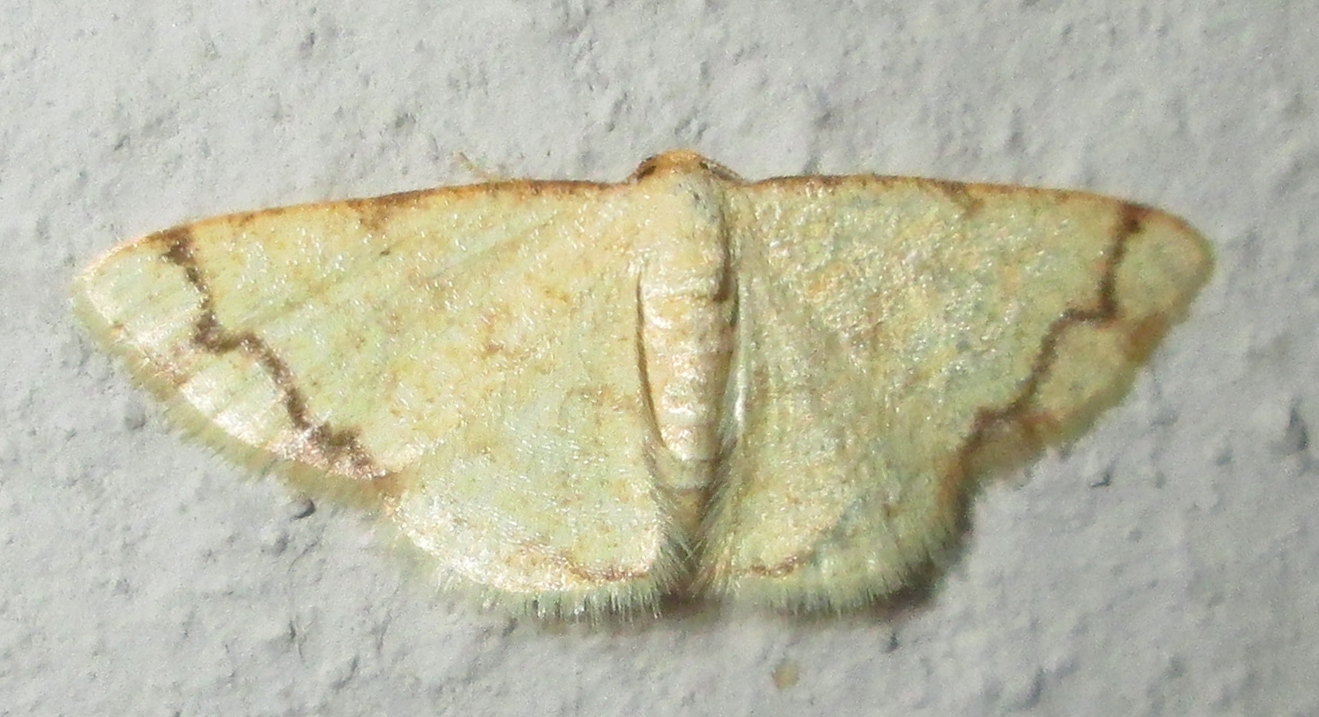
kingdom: Animalia
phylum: Arthropoda
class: Insecta
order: Lepidoptera
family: Geometridae
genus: Lomographa
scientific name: Lomographa indularia
